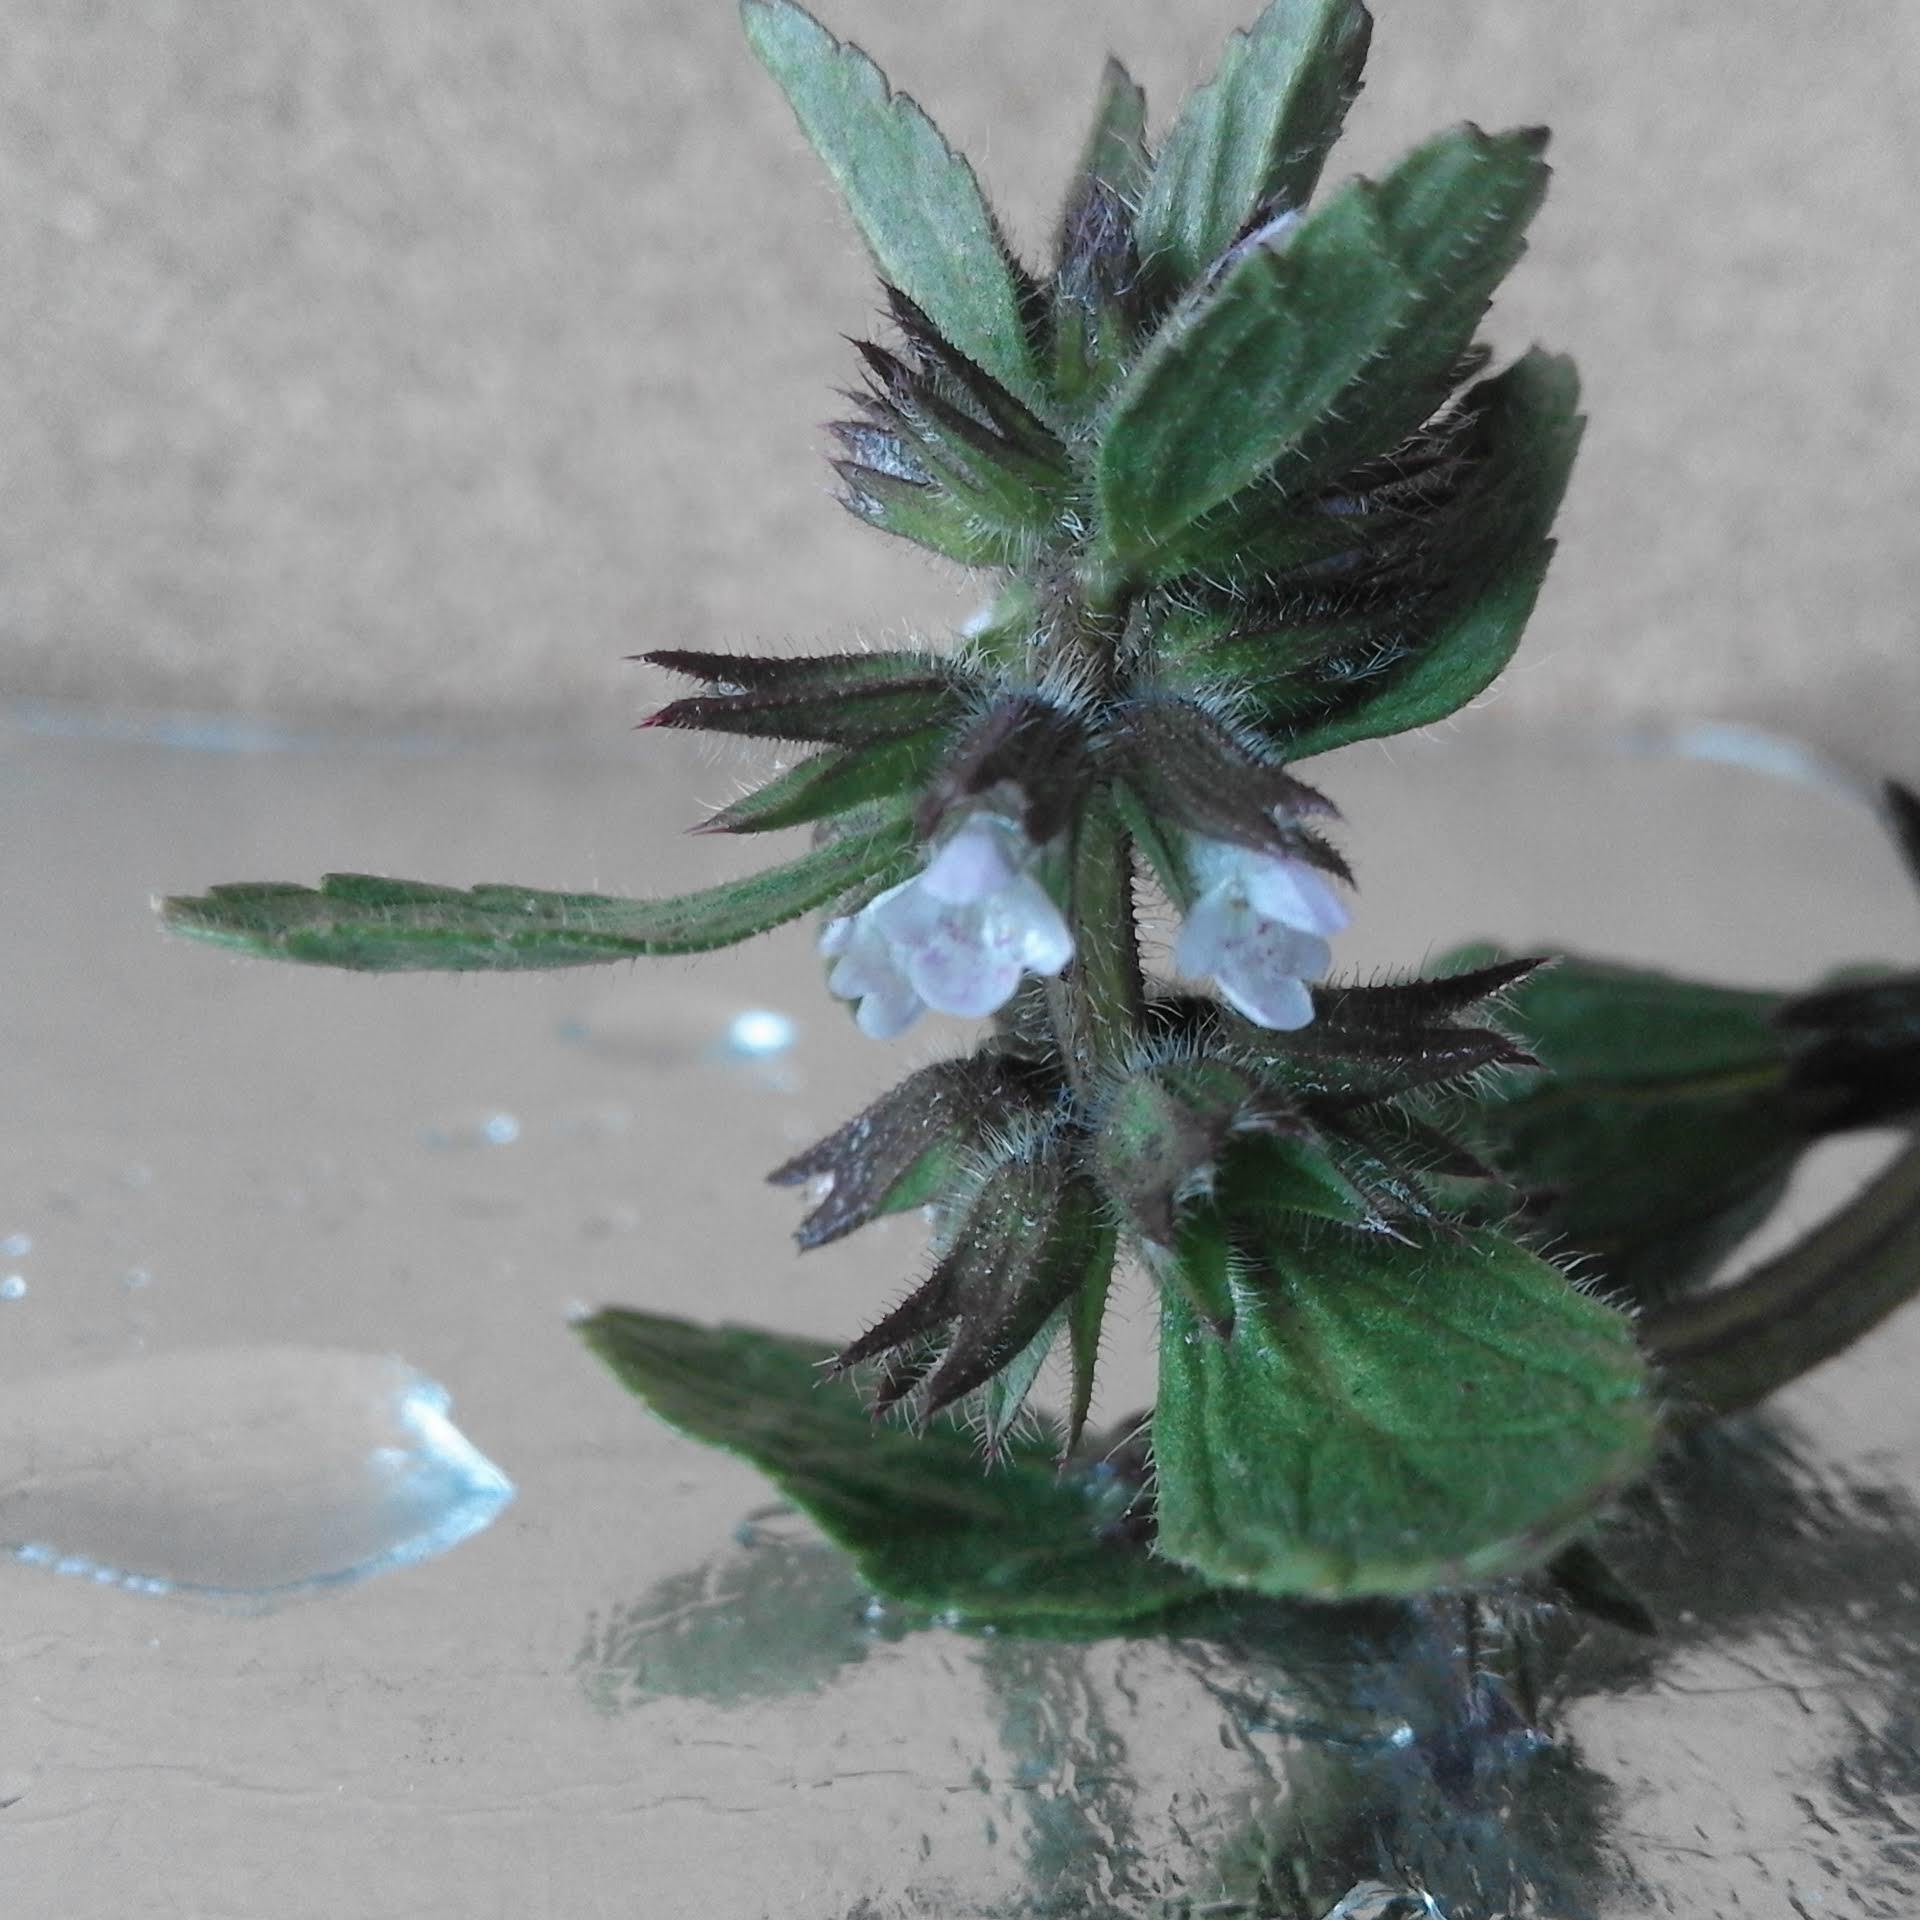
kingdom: Plantae
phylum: Tracheophyta
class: Magnoliopsida
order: Lamiales
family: Lamiaceae
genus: Stachys
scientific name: Stachys arvensis
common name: Field woundwort
